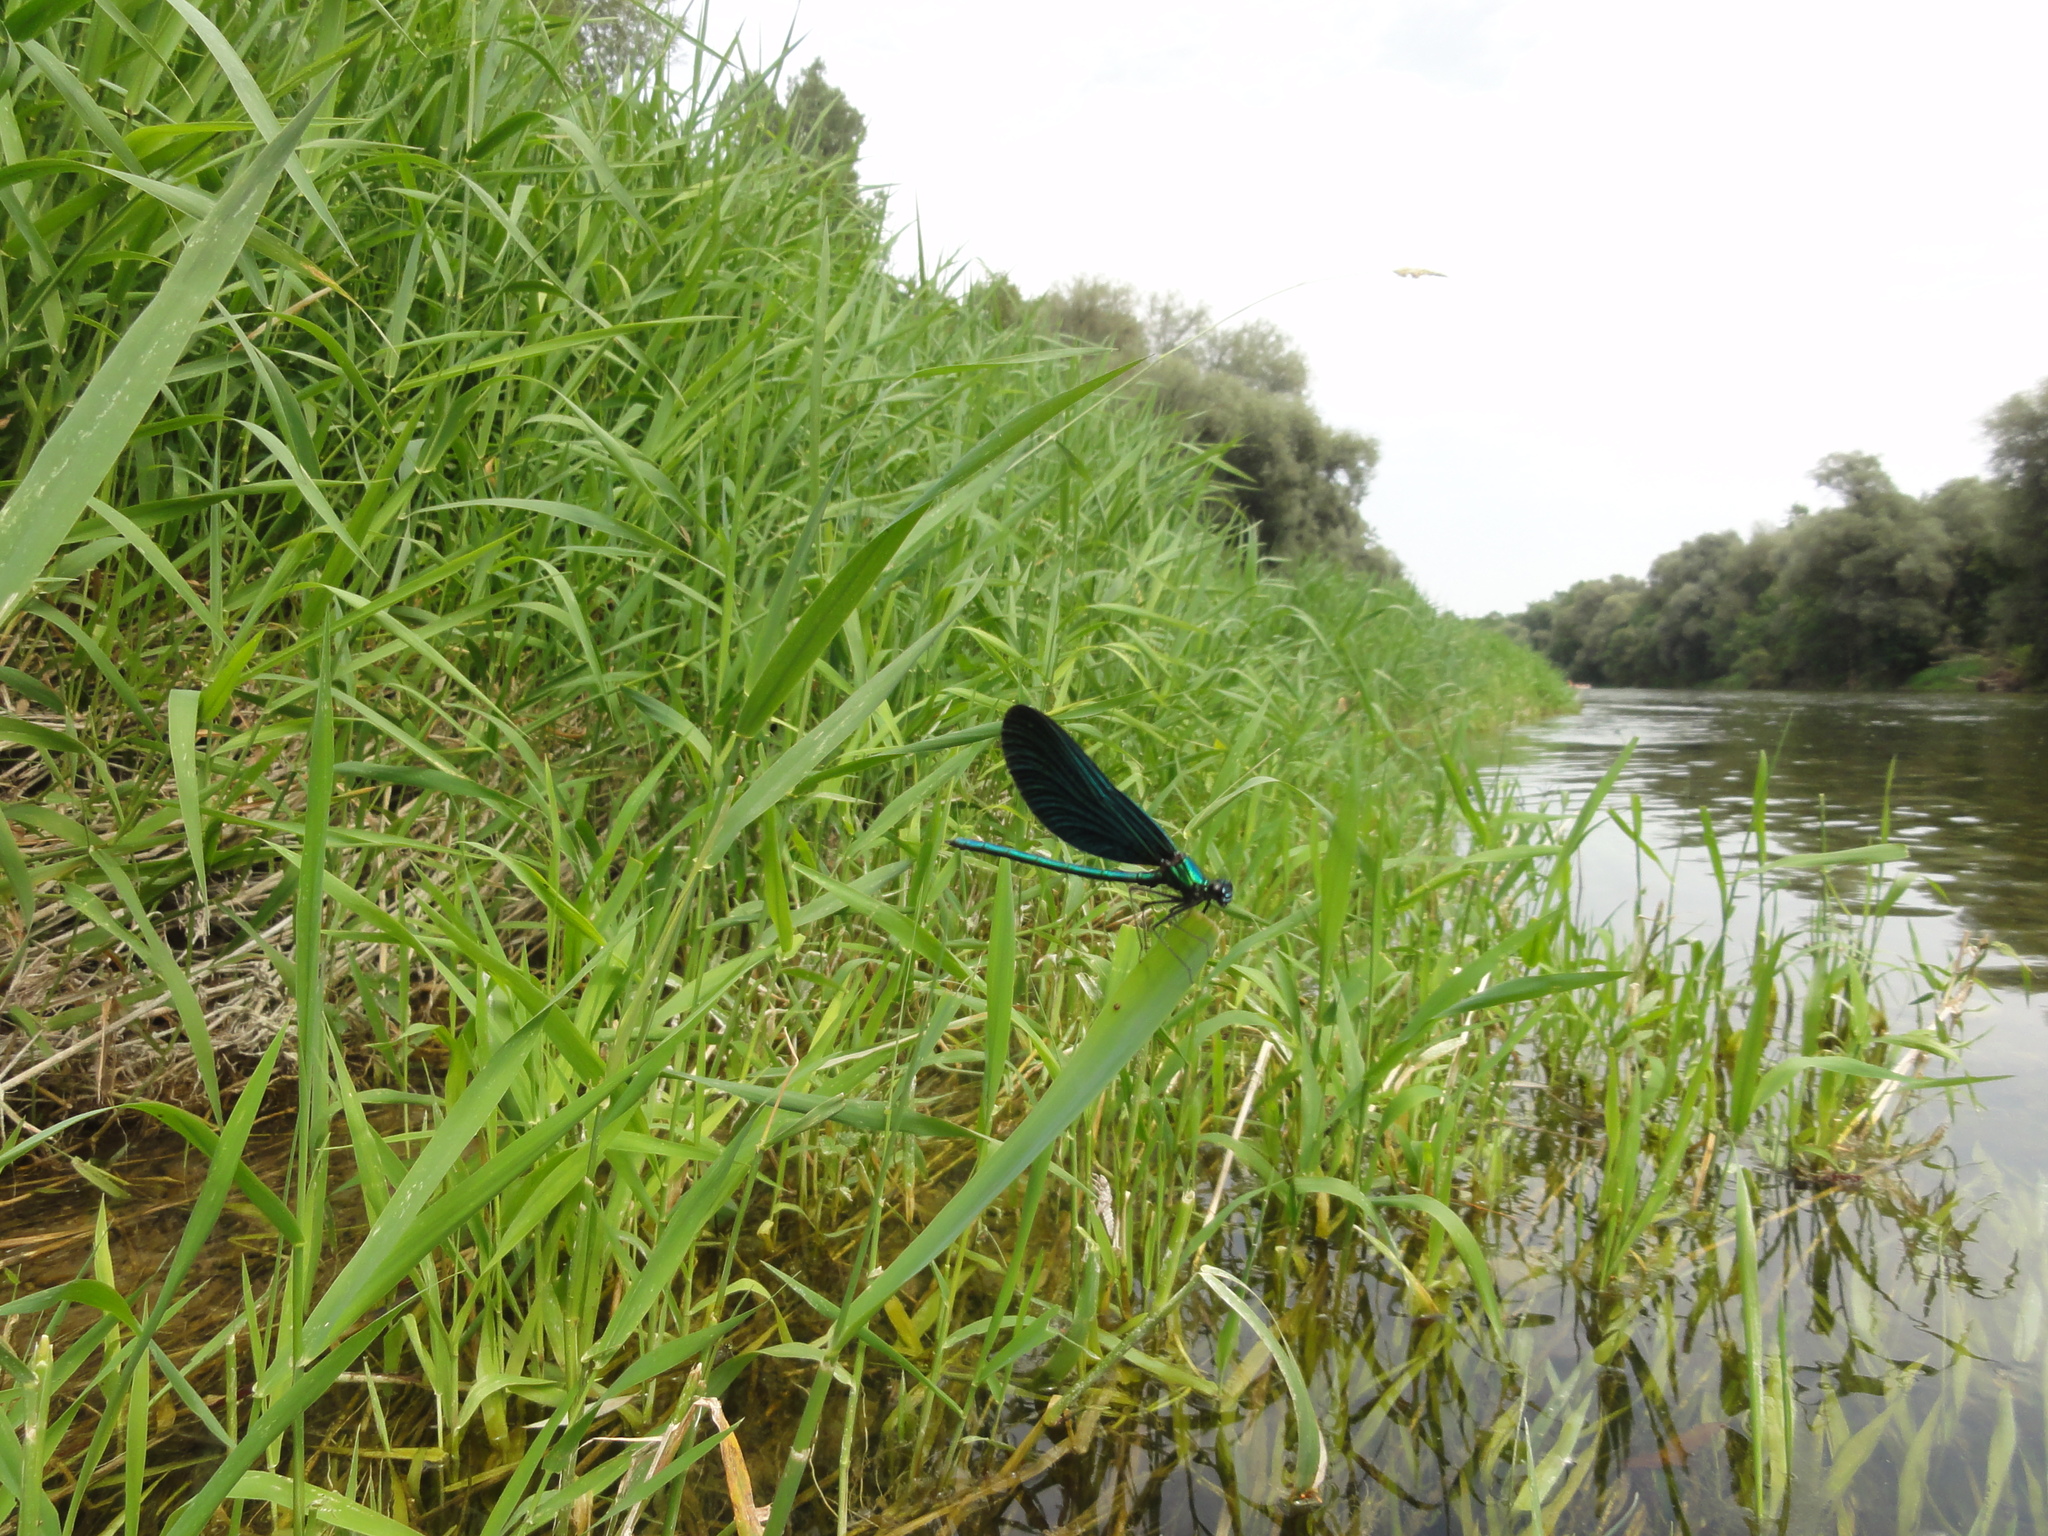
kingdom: Animalia
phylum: Arthropoda
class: Insecta
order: Odonata
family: Calopterygidae
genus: Calopteryx
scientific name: Calopteryx virgo
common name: Beautiful demoiselle
